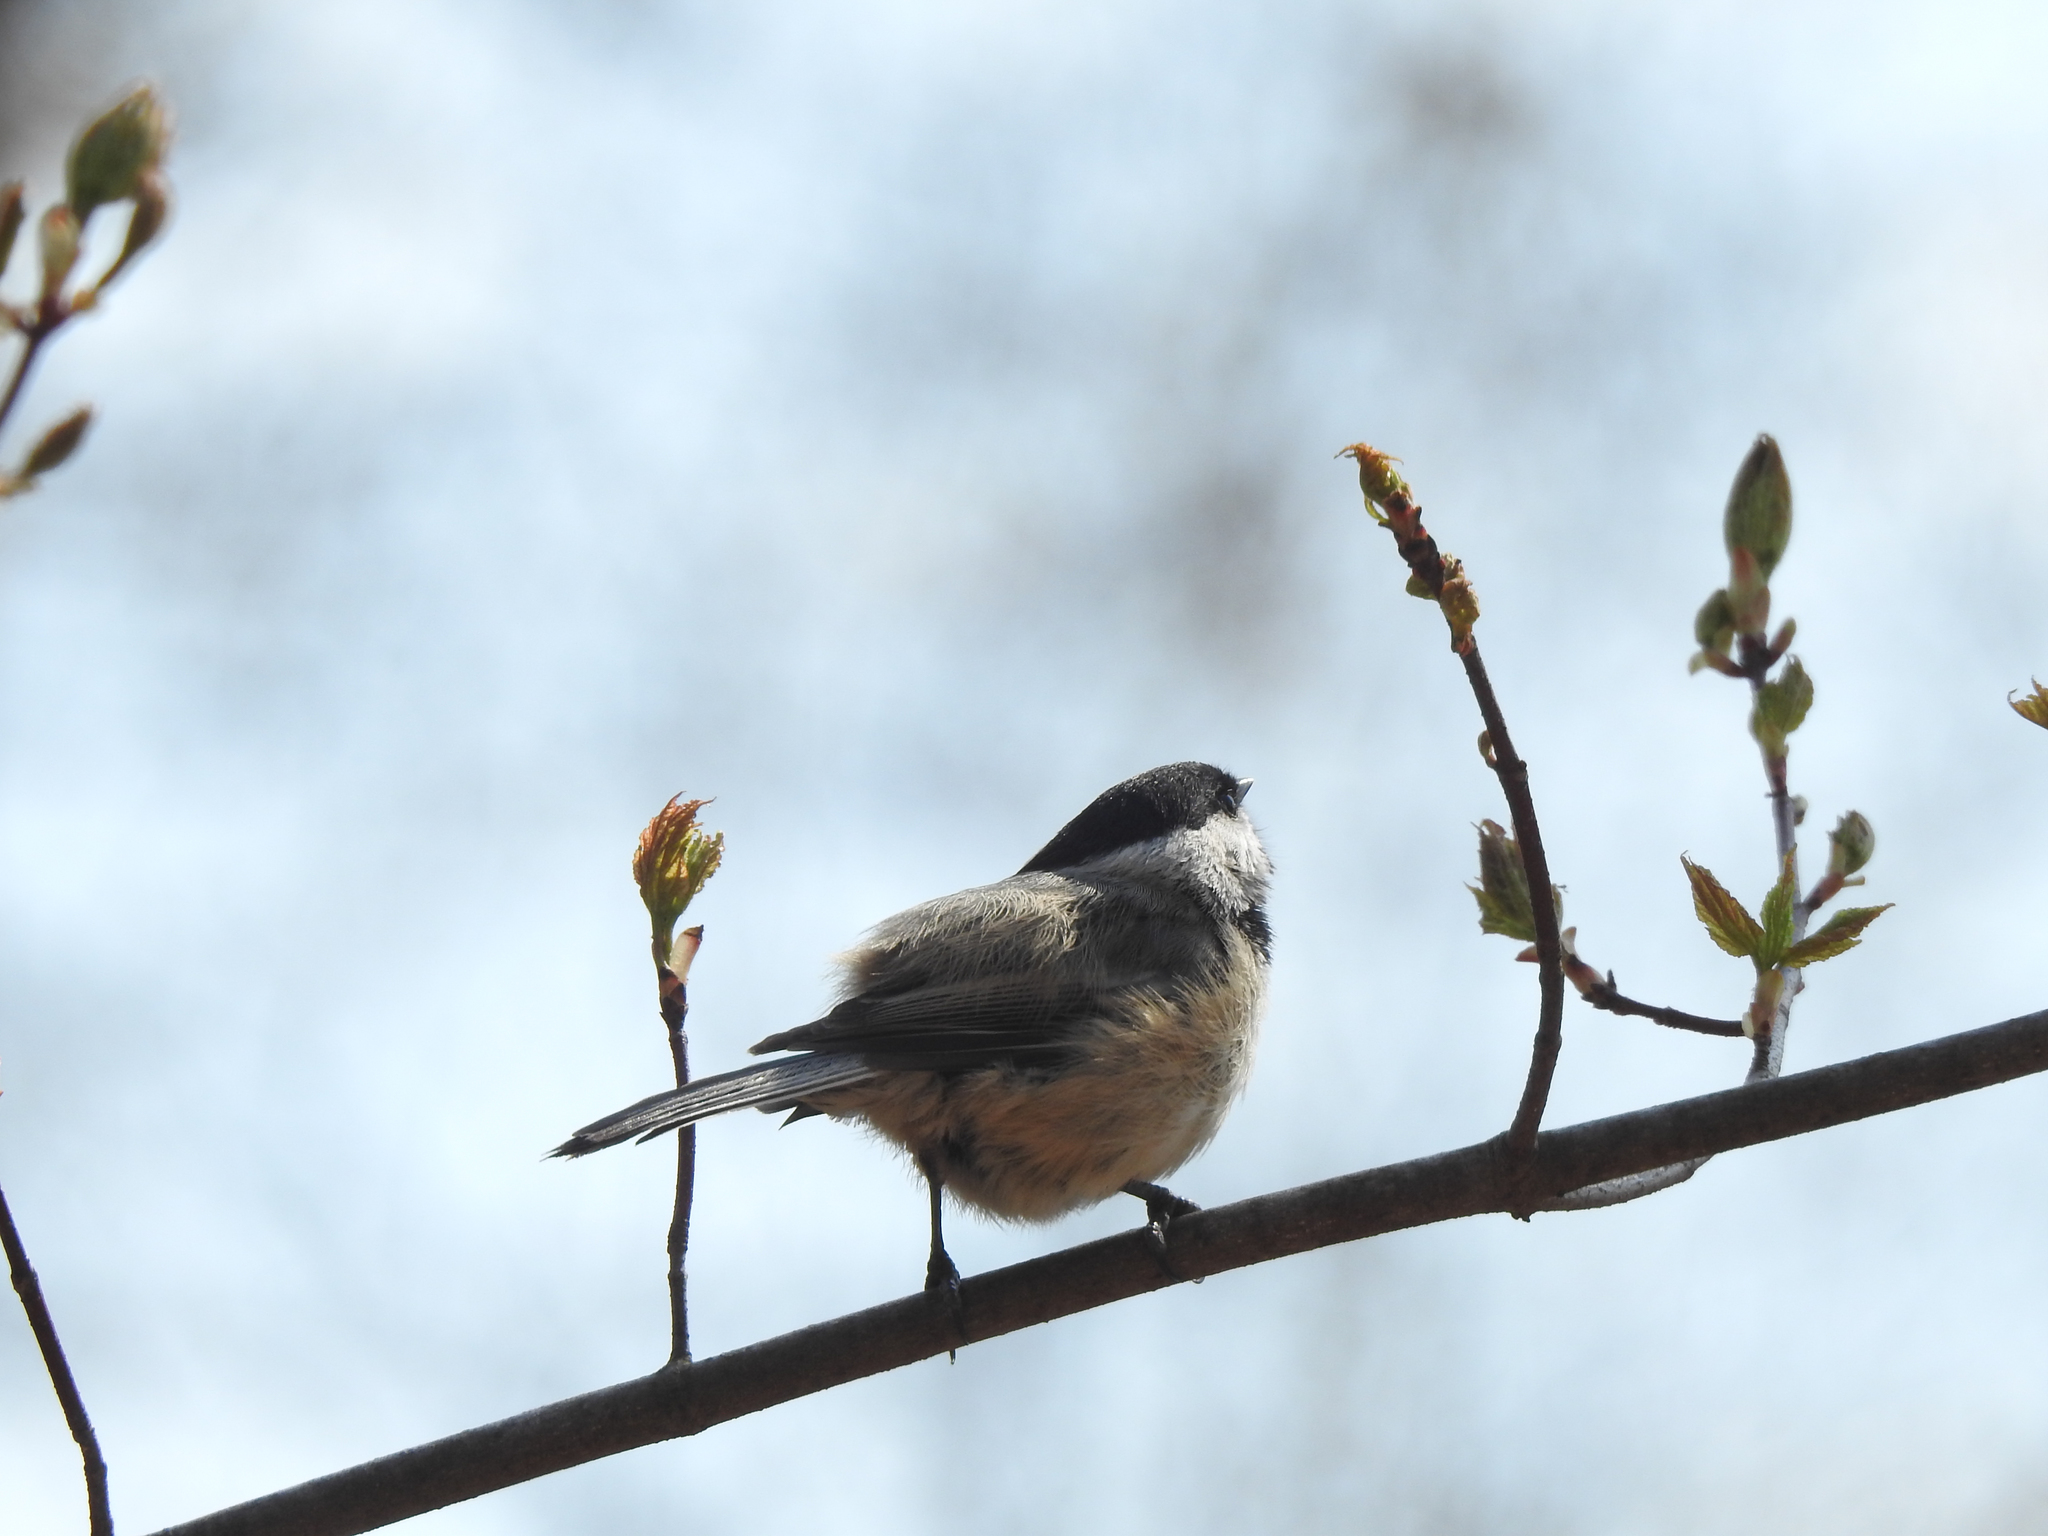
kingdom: Animalia
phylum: Chordata
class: Aves
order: Passeriformes
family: Paridae
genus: Poecile
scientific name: Poecile atricapillus
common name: Black-capped chickadee
